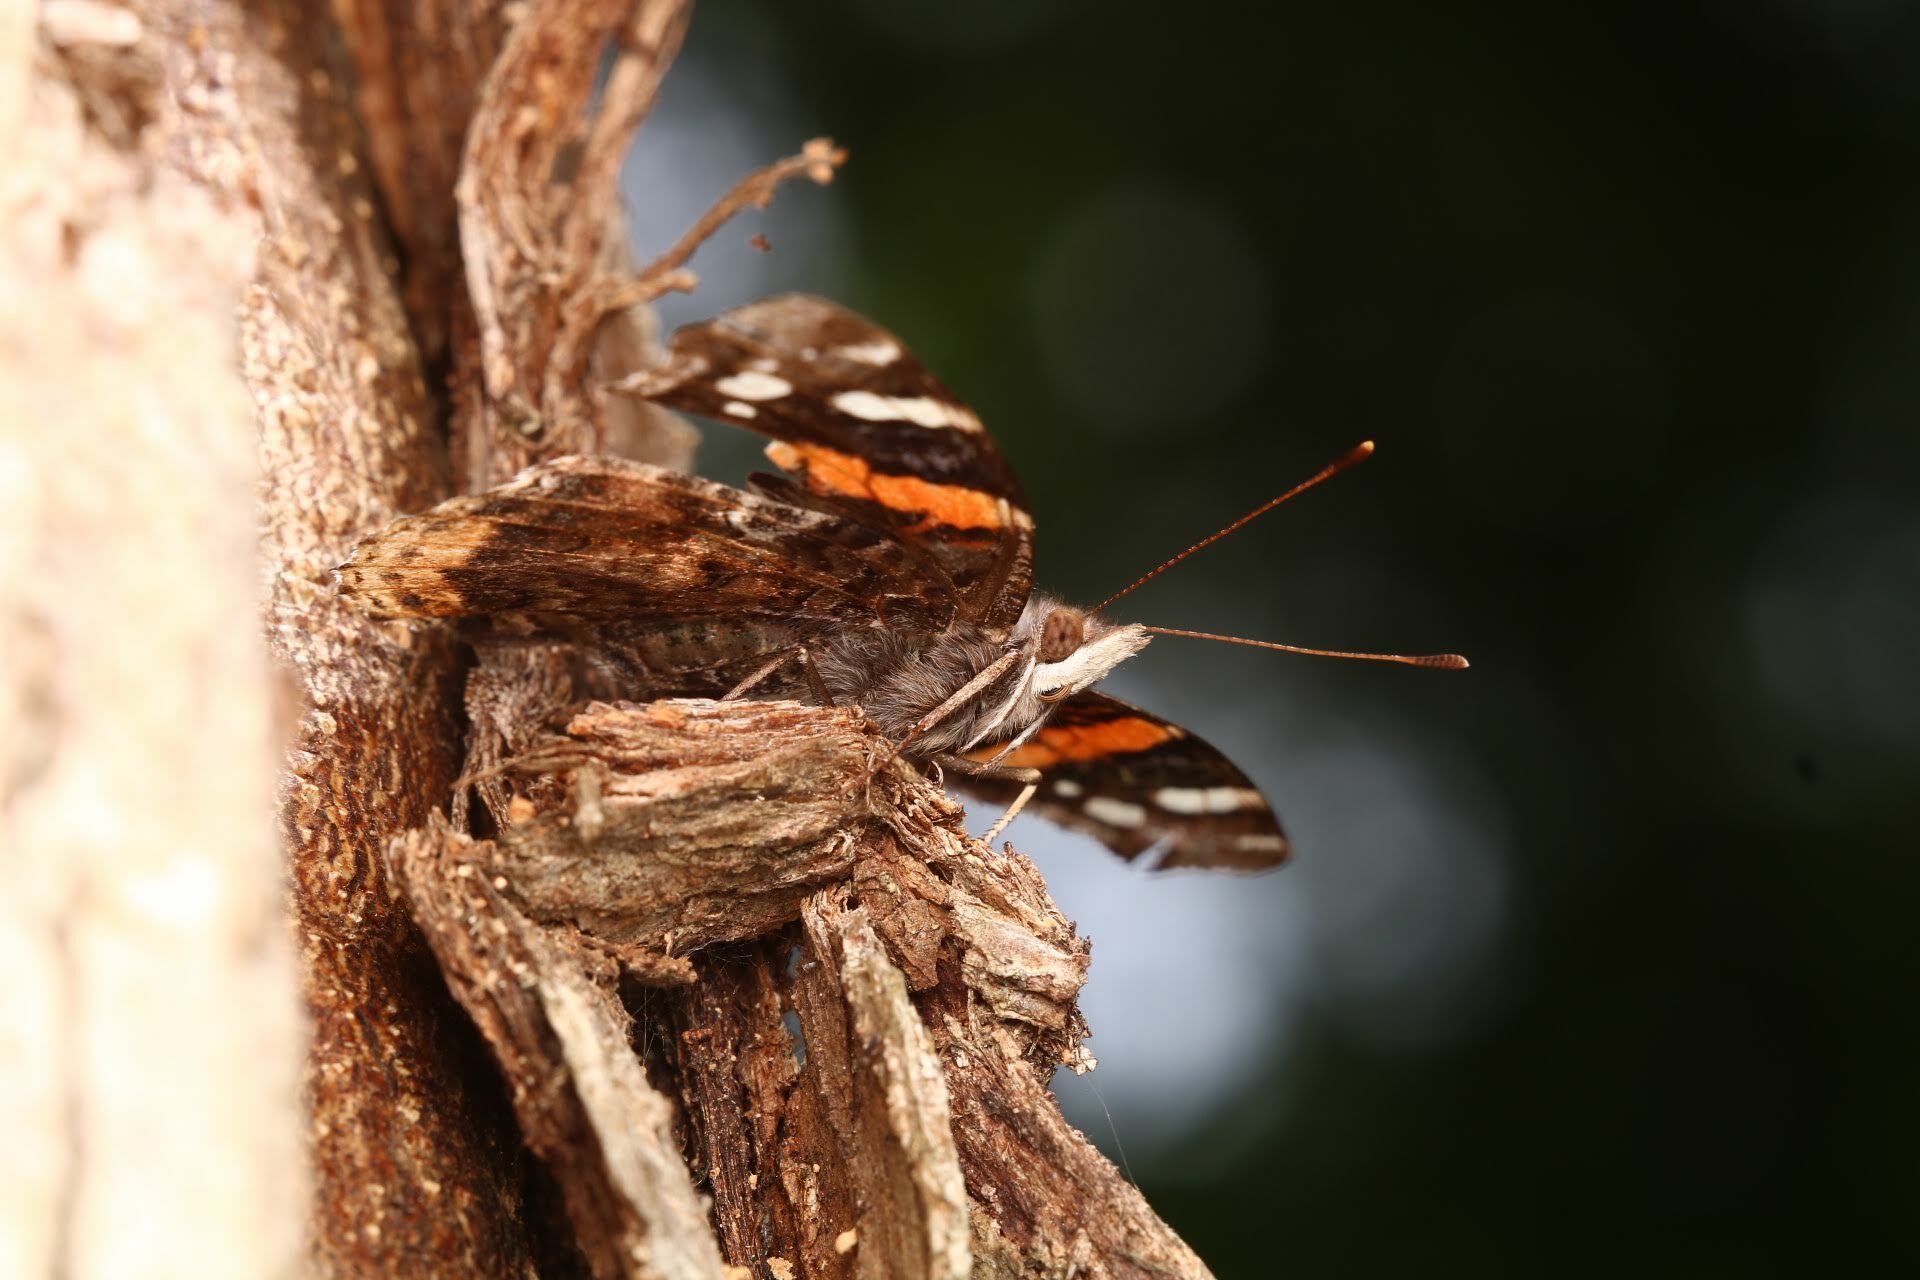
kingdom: Animalia
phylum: Arthropoda
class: Insecta
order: Lepidoptera
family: Nymphalidae
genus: Vanessa
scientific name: Vanessa atalanta
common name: Red admiral
